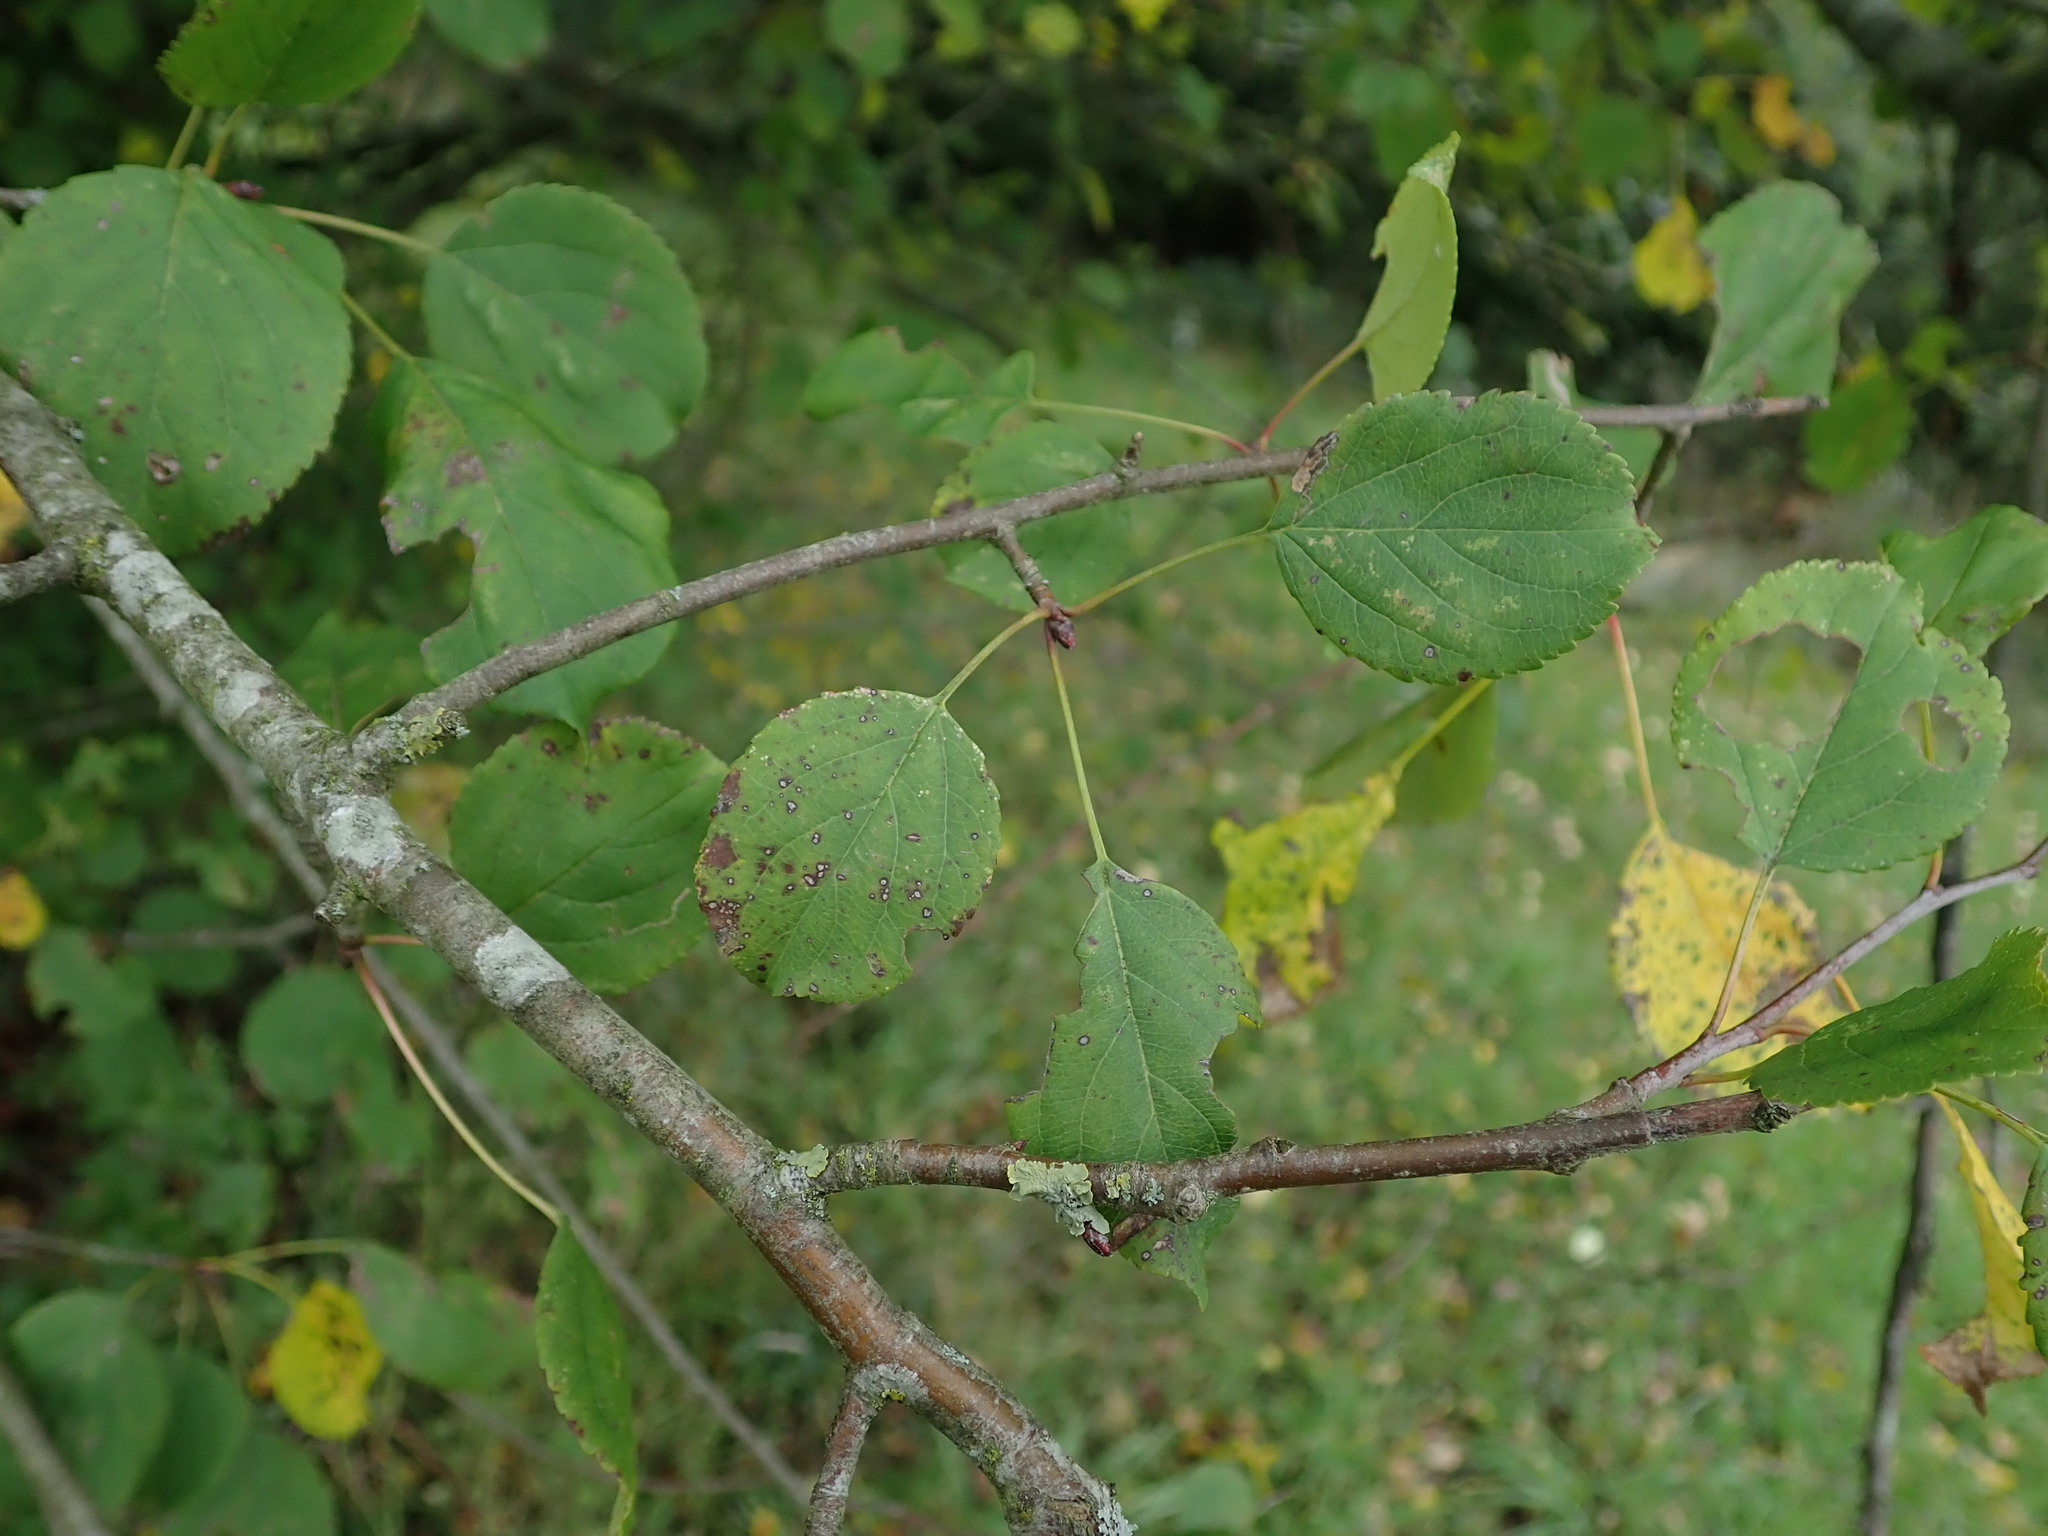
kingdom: Plantae
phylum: Tracheophyta
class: Magnoliopsida
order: Rosales
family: Rosaceae
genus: Malus
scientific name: Malus sylvestris
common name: Crab apple
